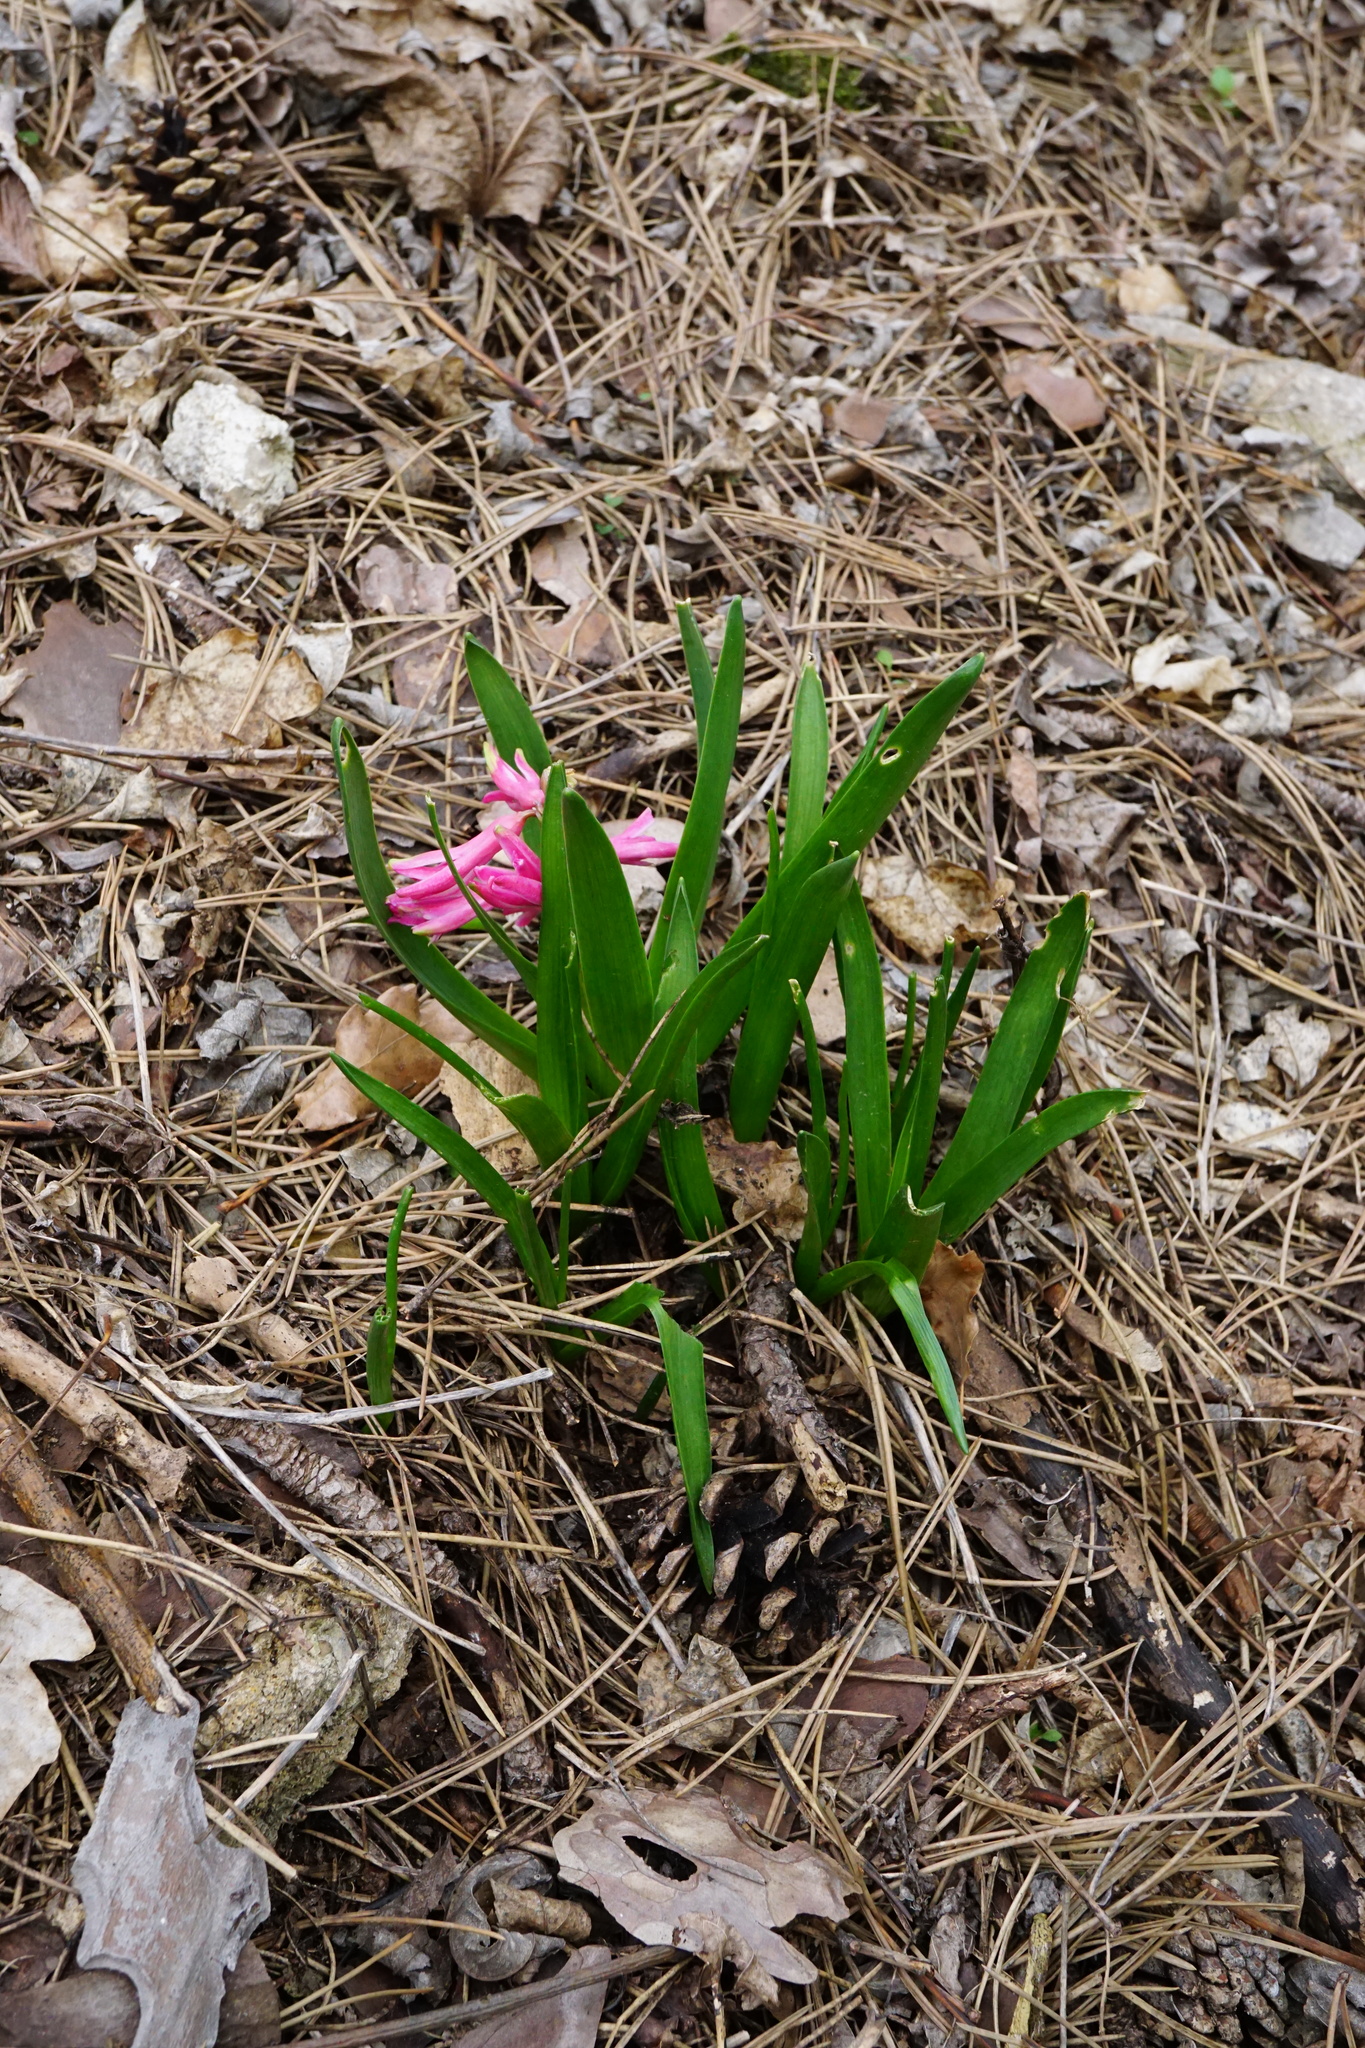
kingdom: Plantae
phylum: Tracheophyta
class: Liliopsida
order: Asparagales
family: Asparagaceae
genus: Hyacinthus
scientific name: Hyacinthus orientalis
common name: Hyacinth
